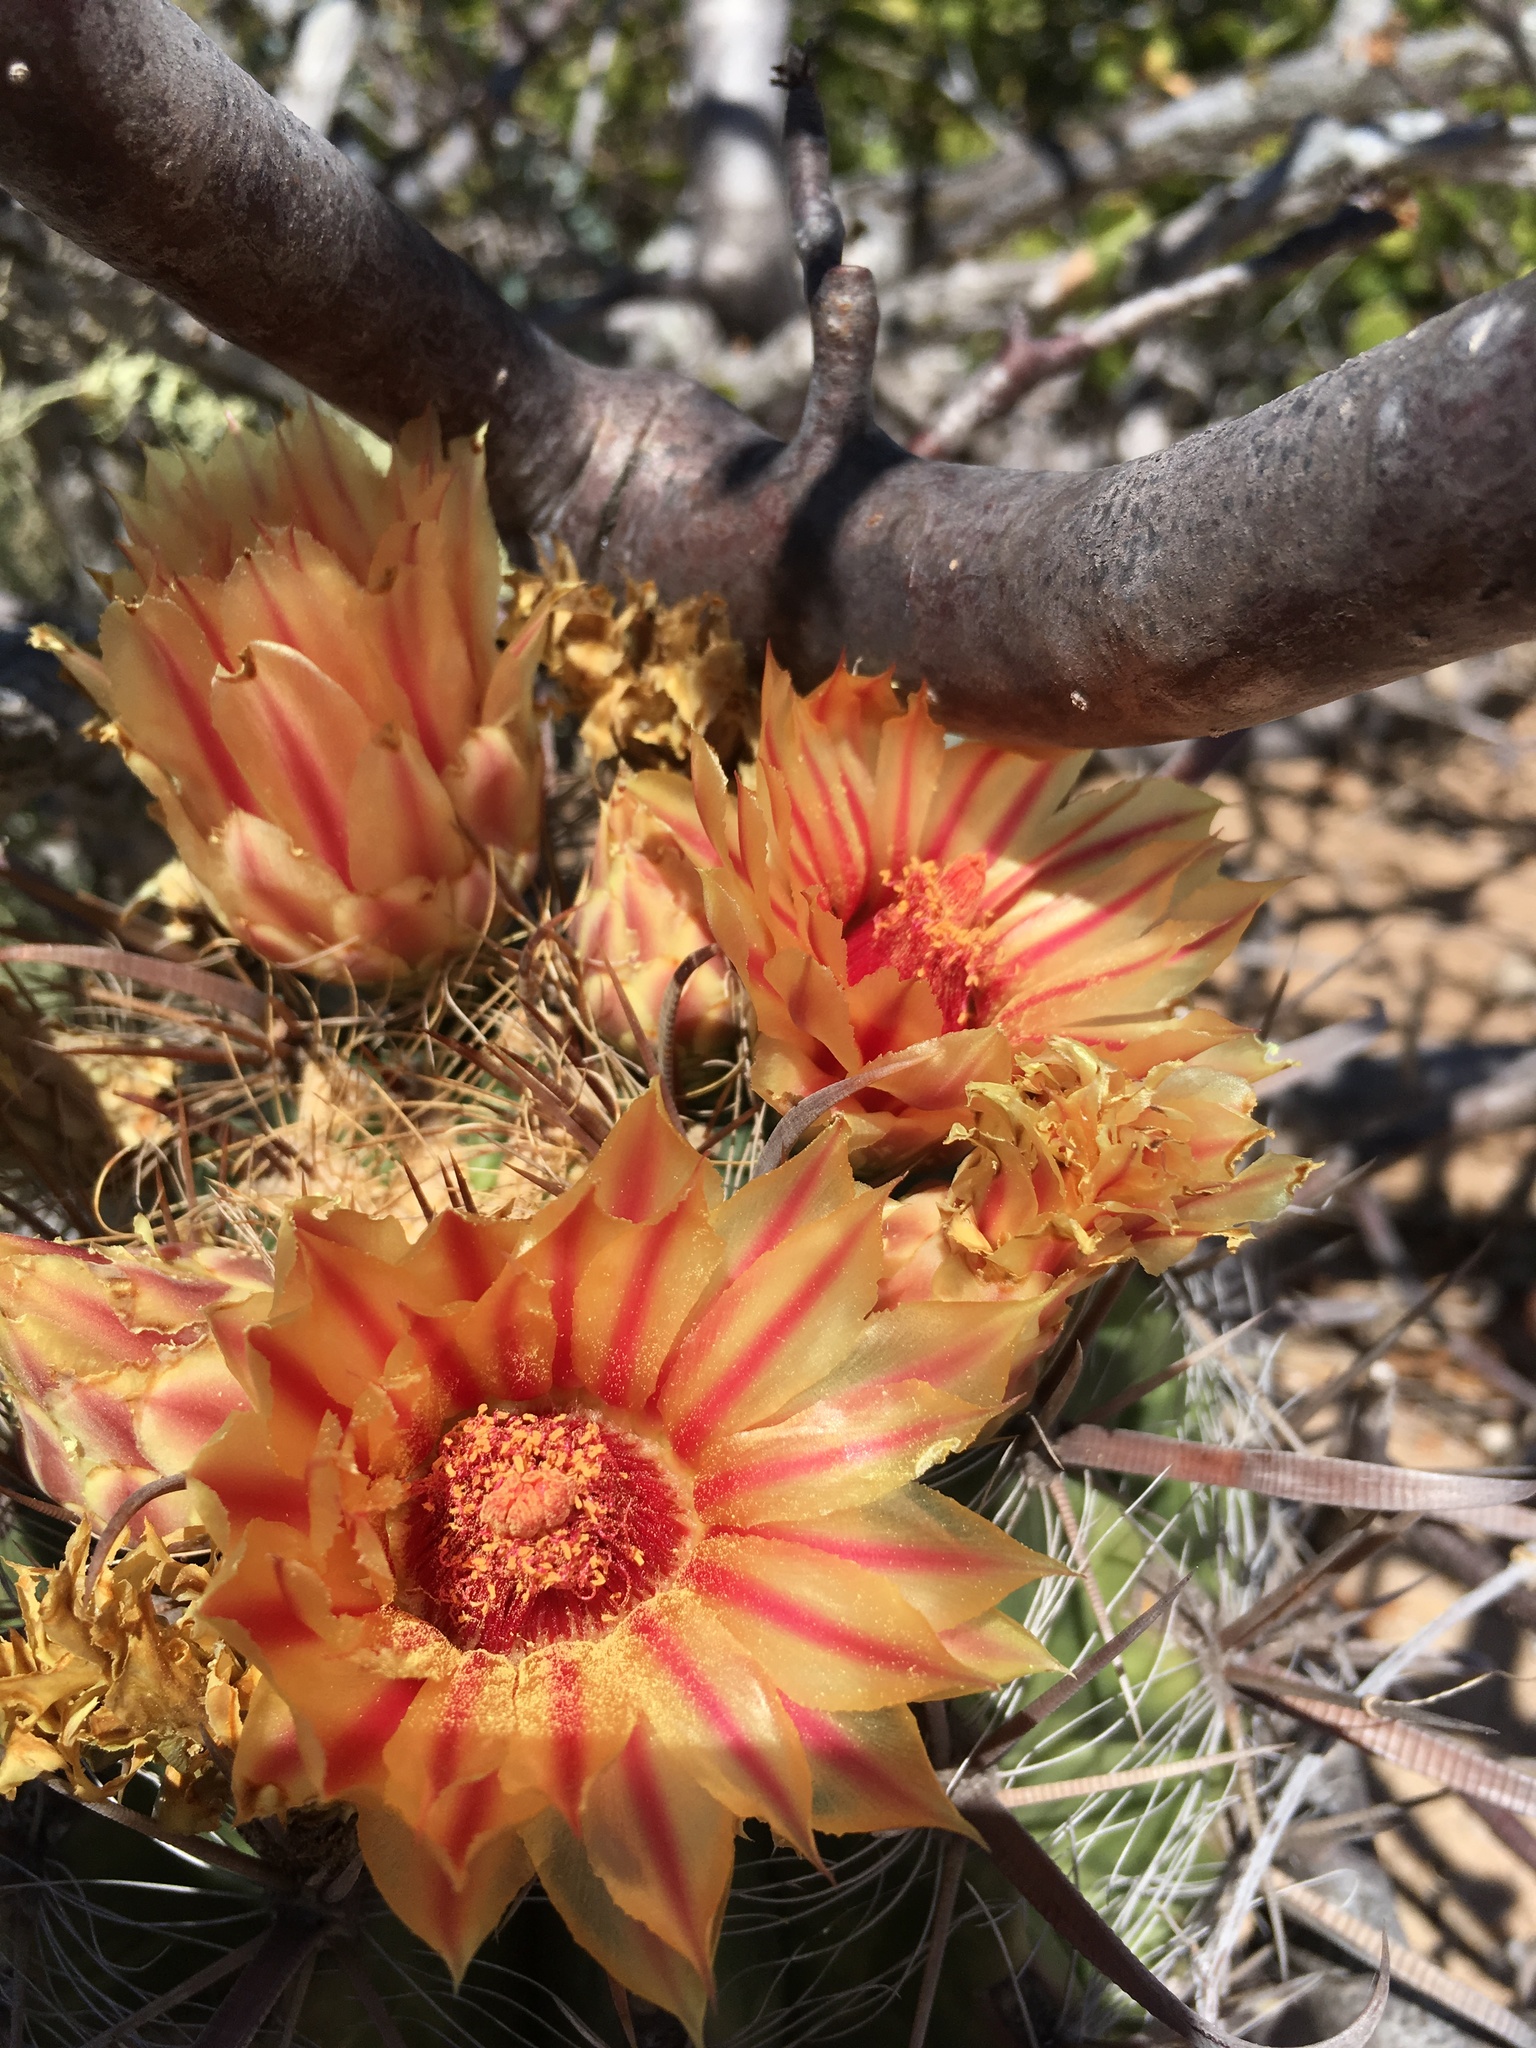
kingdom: Plantae
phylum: Tracheophyta
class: Magnoliopsida
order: Caryophyllales
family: Cactaceae
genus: Ferocactus
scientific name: Ferocactus townsendianus
